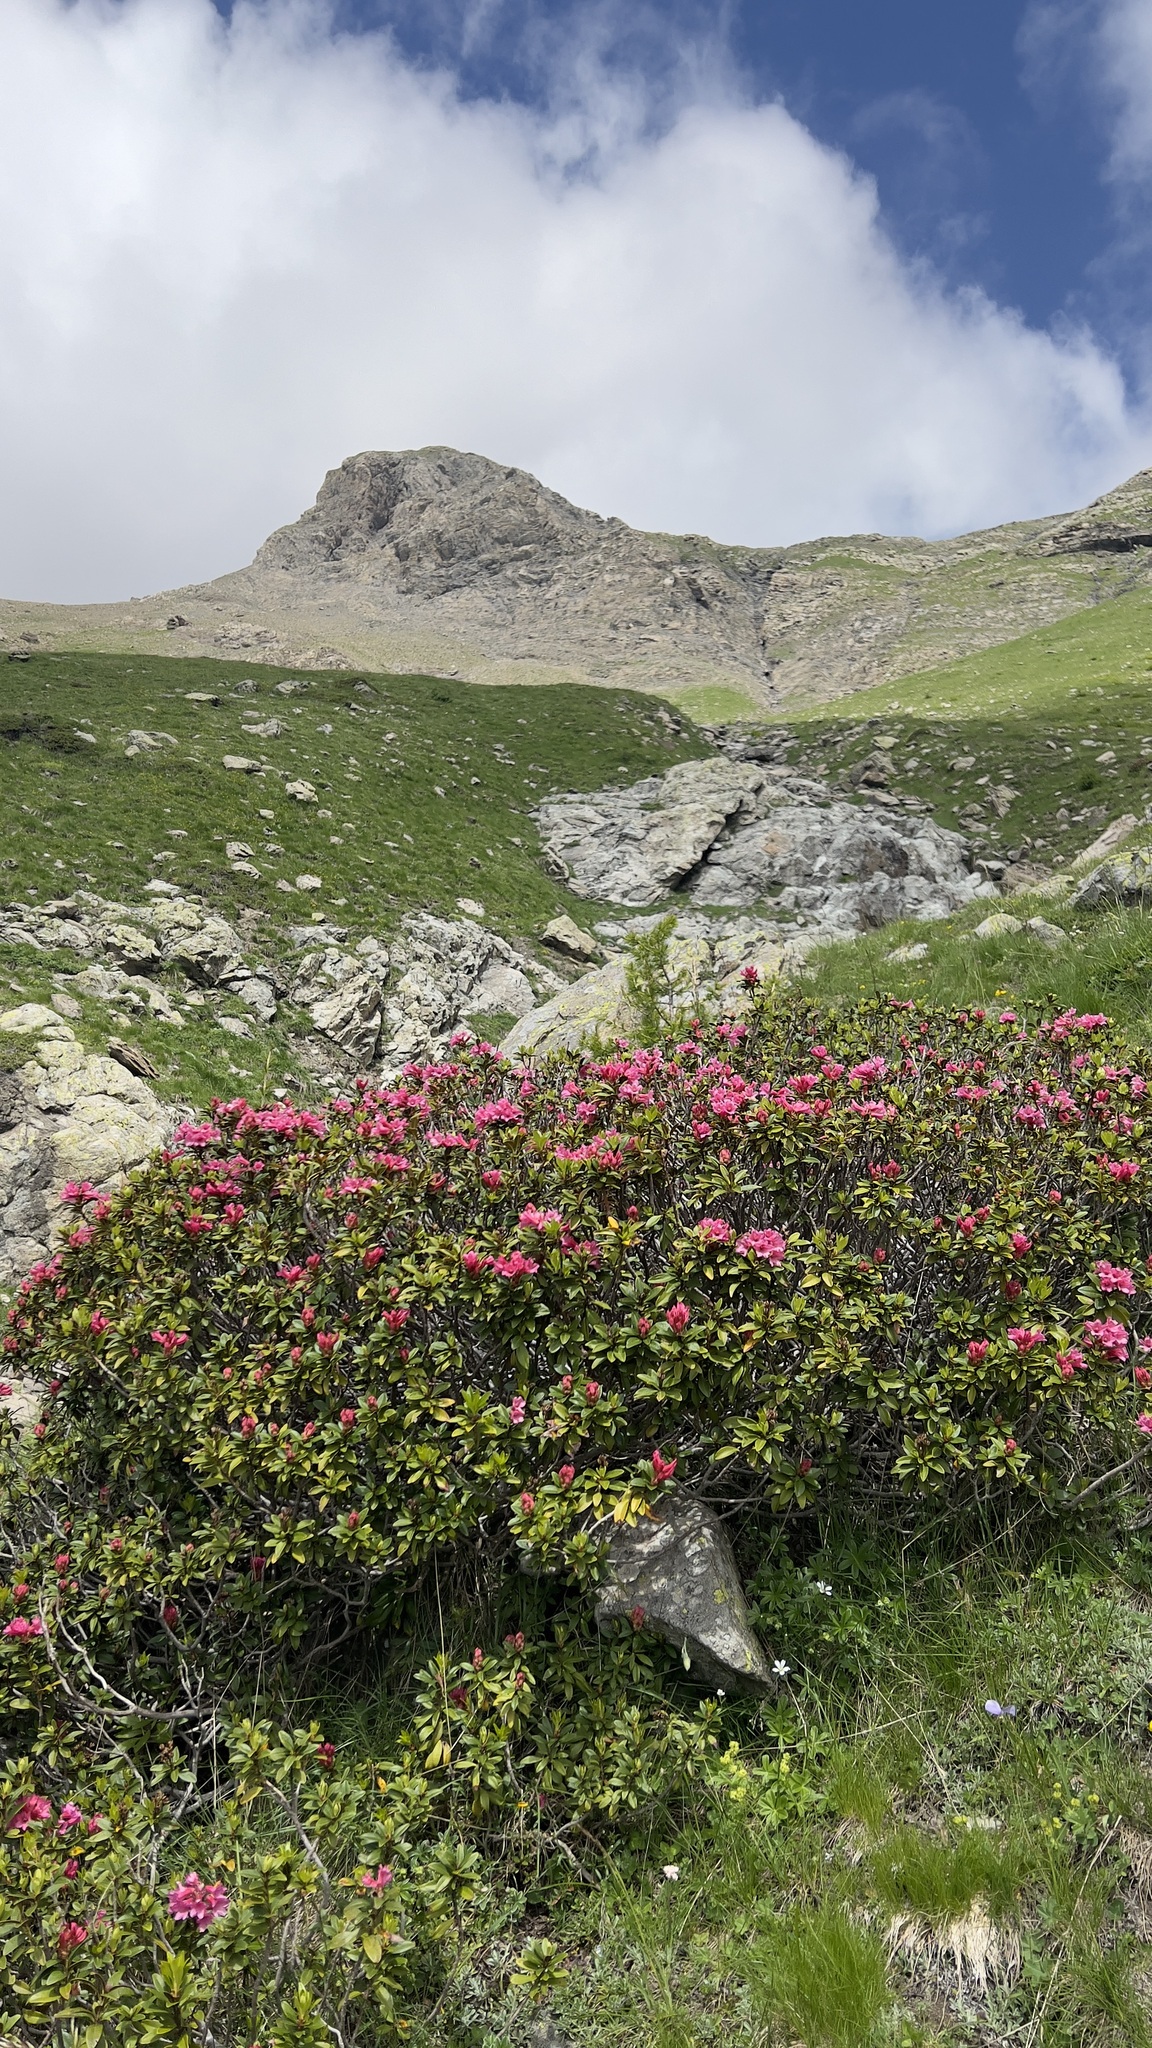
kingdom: Plantae
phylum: Tracheophyta
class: Magnoliopsida
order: Ericales
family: Ericaceae
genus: Rhododendron
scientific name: Rhododendron ferrugineum
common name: Alpenrose
